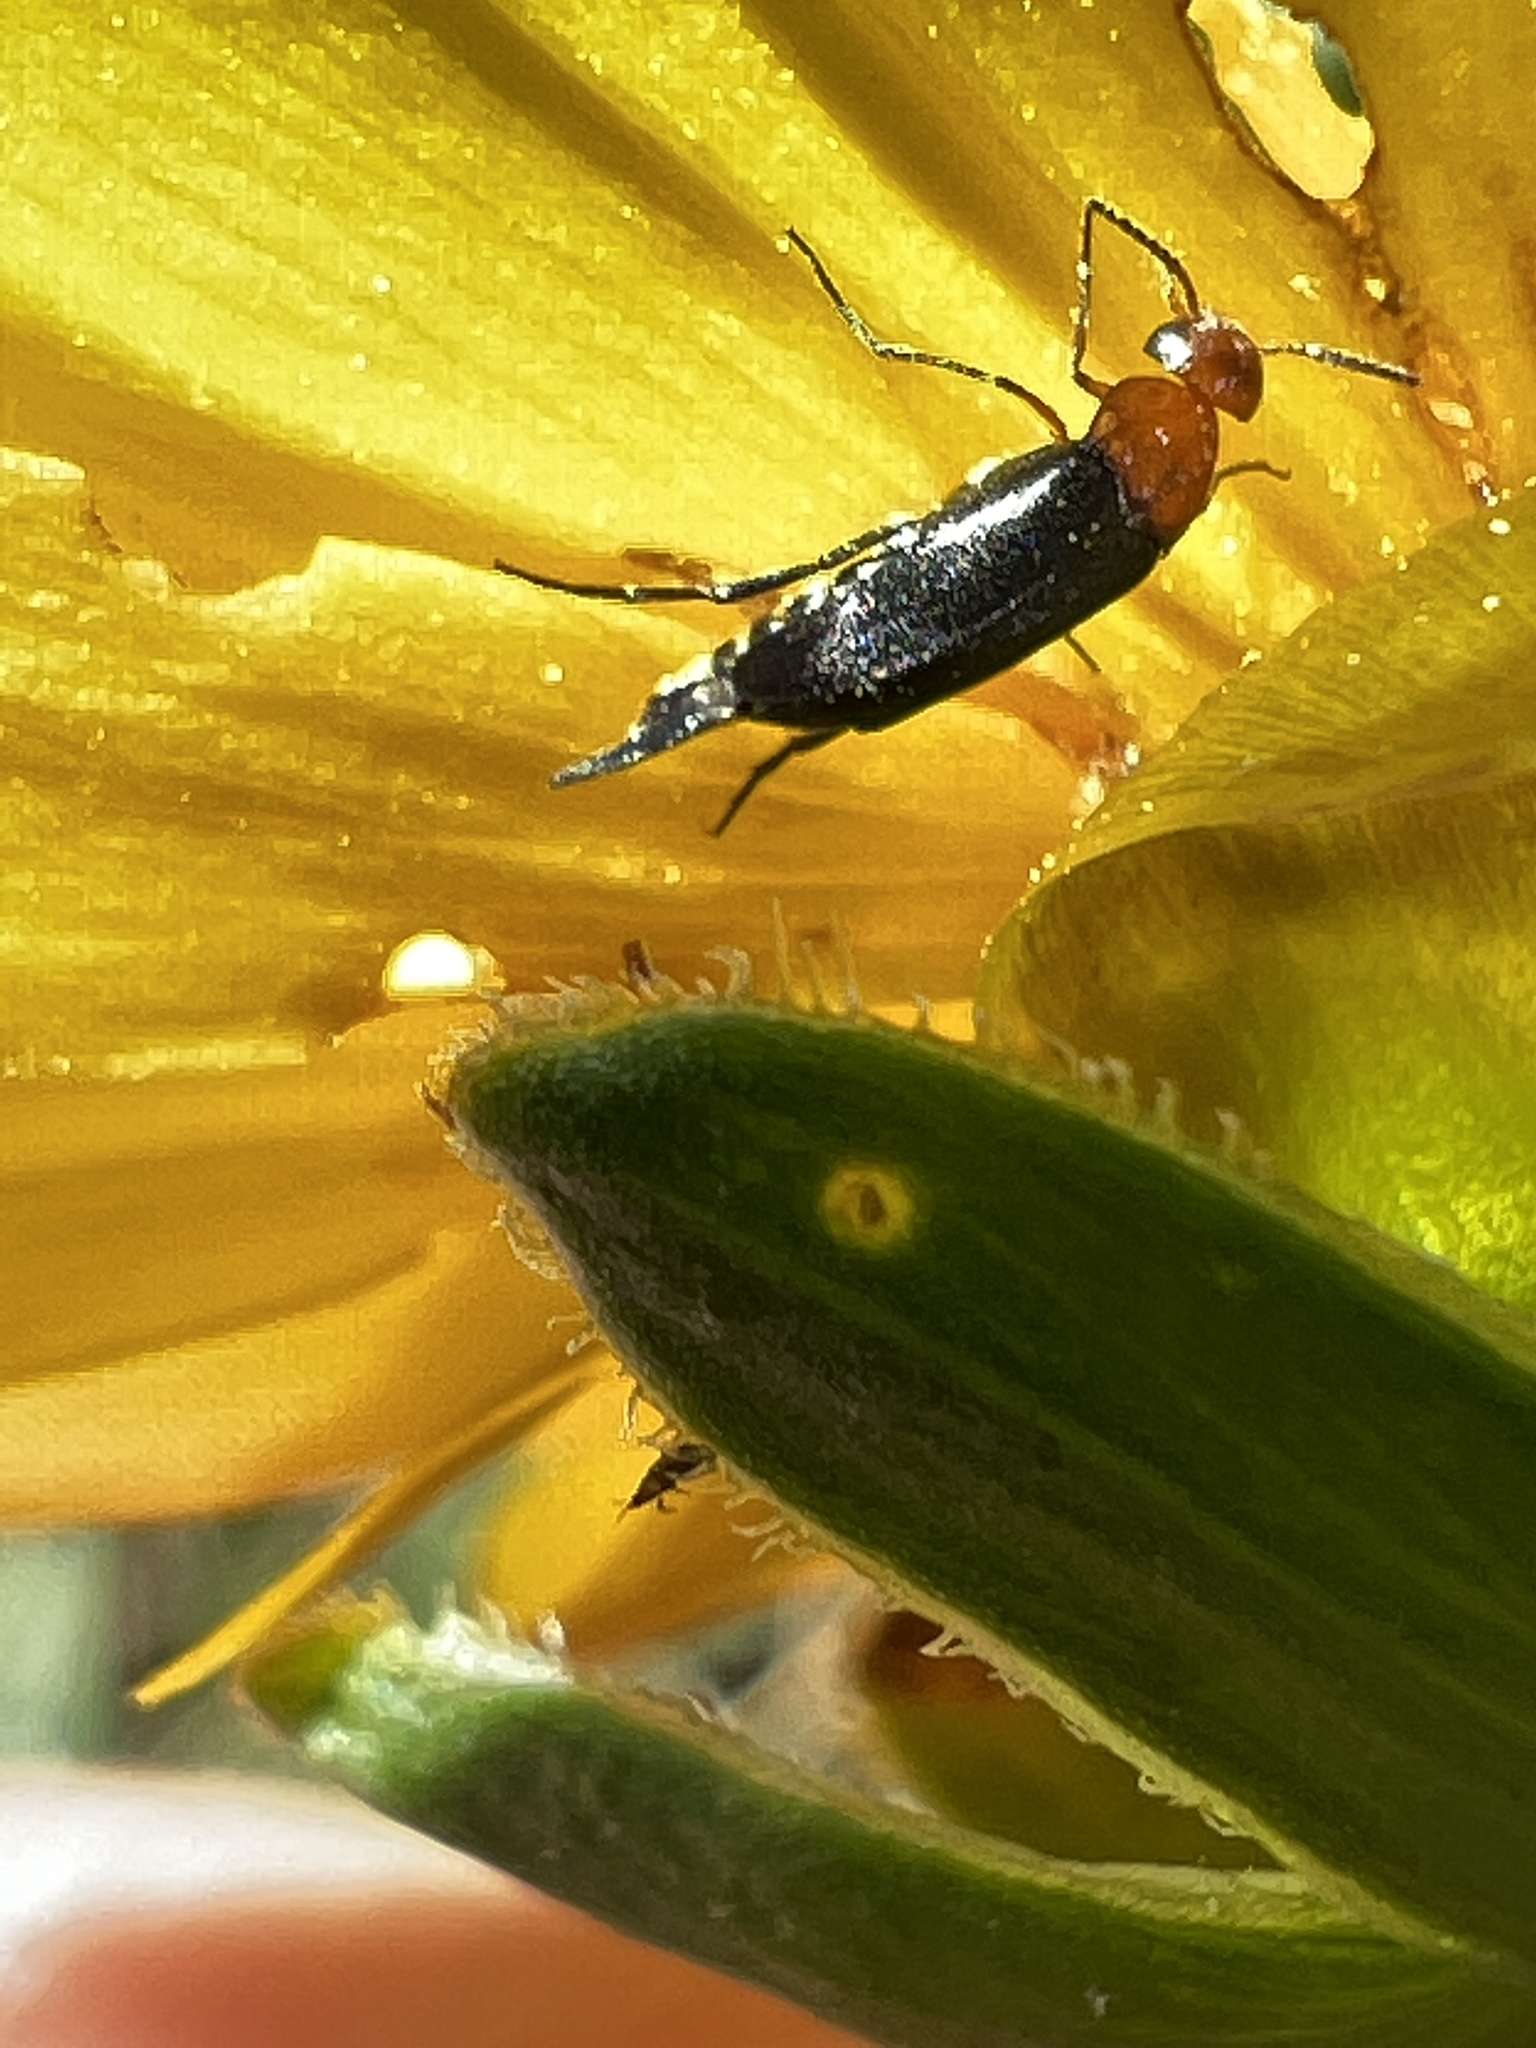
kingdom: Animalia
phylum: Arthropoda
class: Insecta
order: Coleoptera
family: Mordellidae
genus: Mordellistena
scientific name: Mordellistena cervicalis
